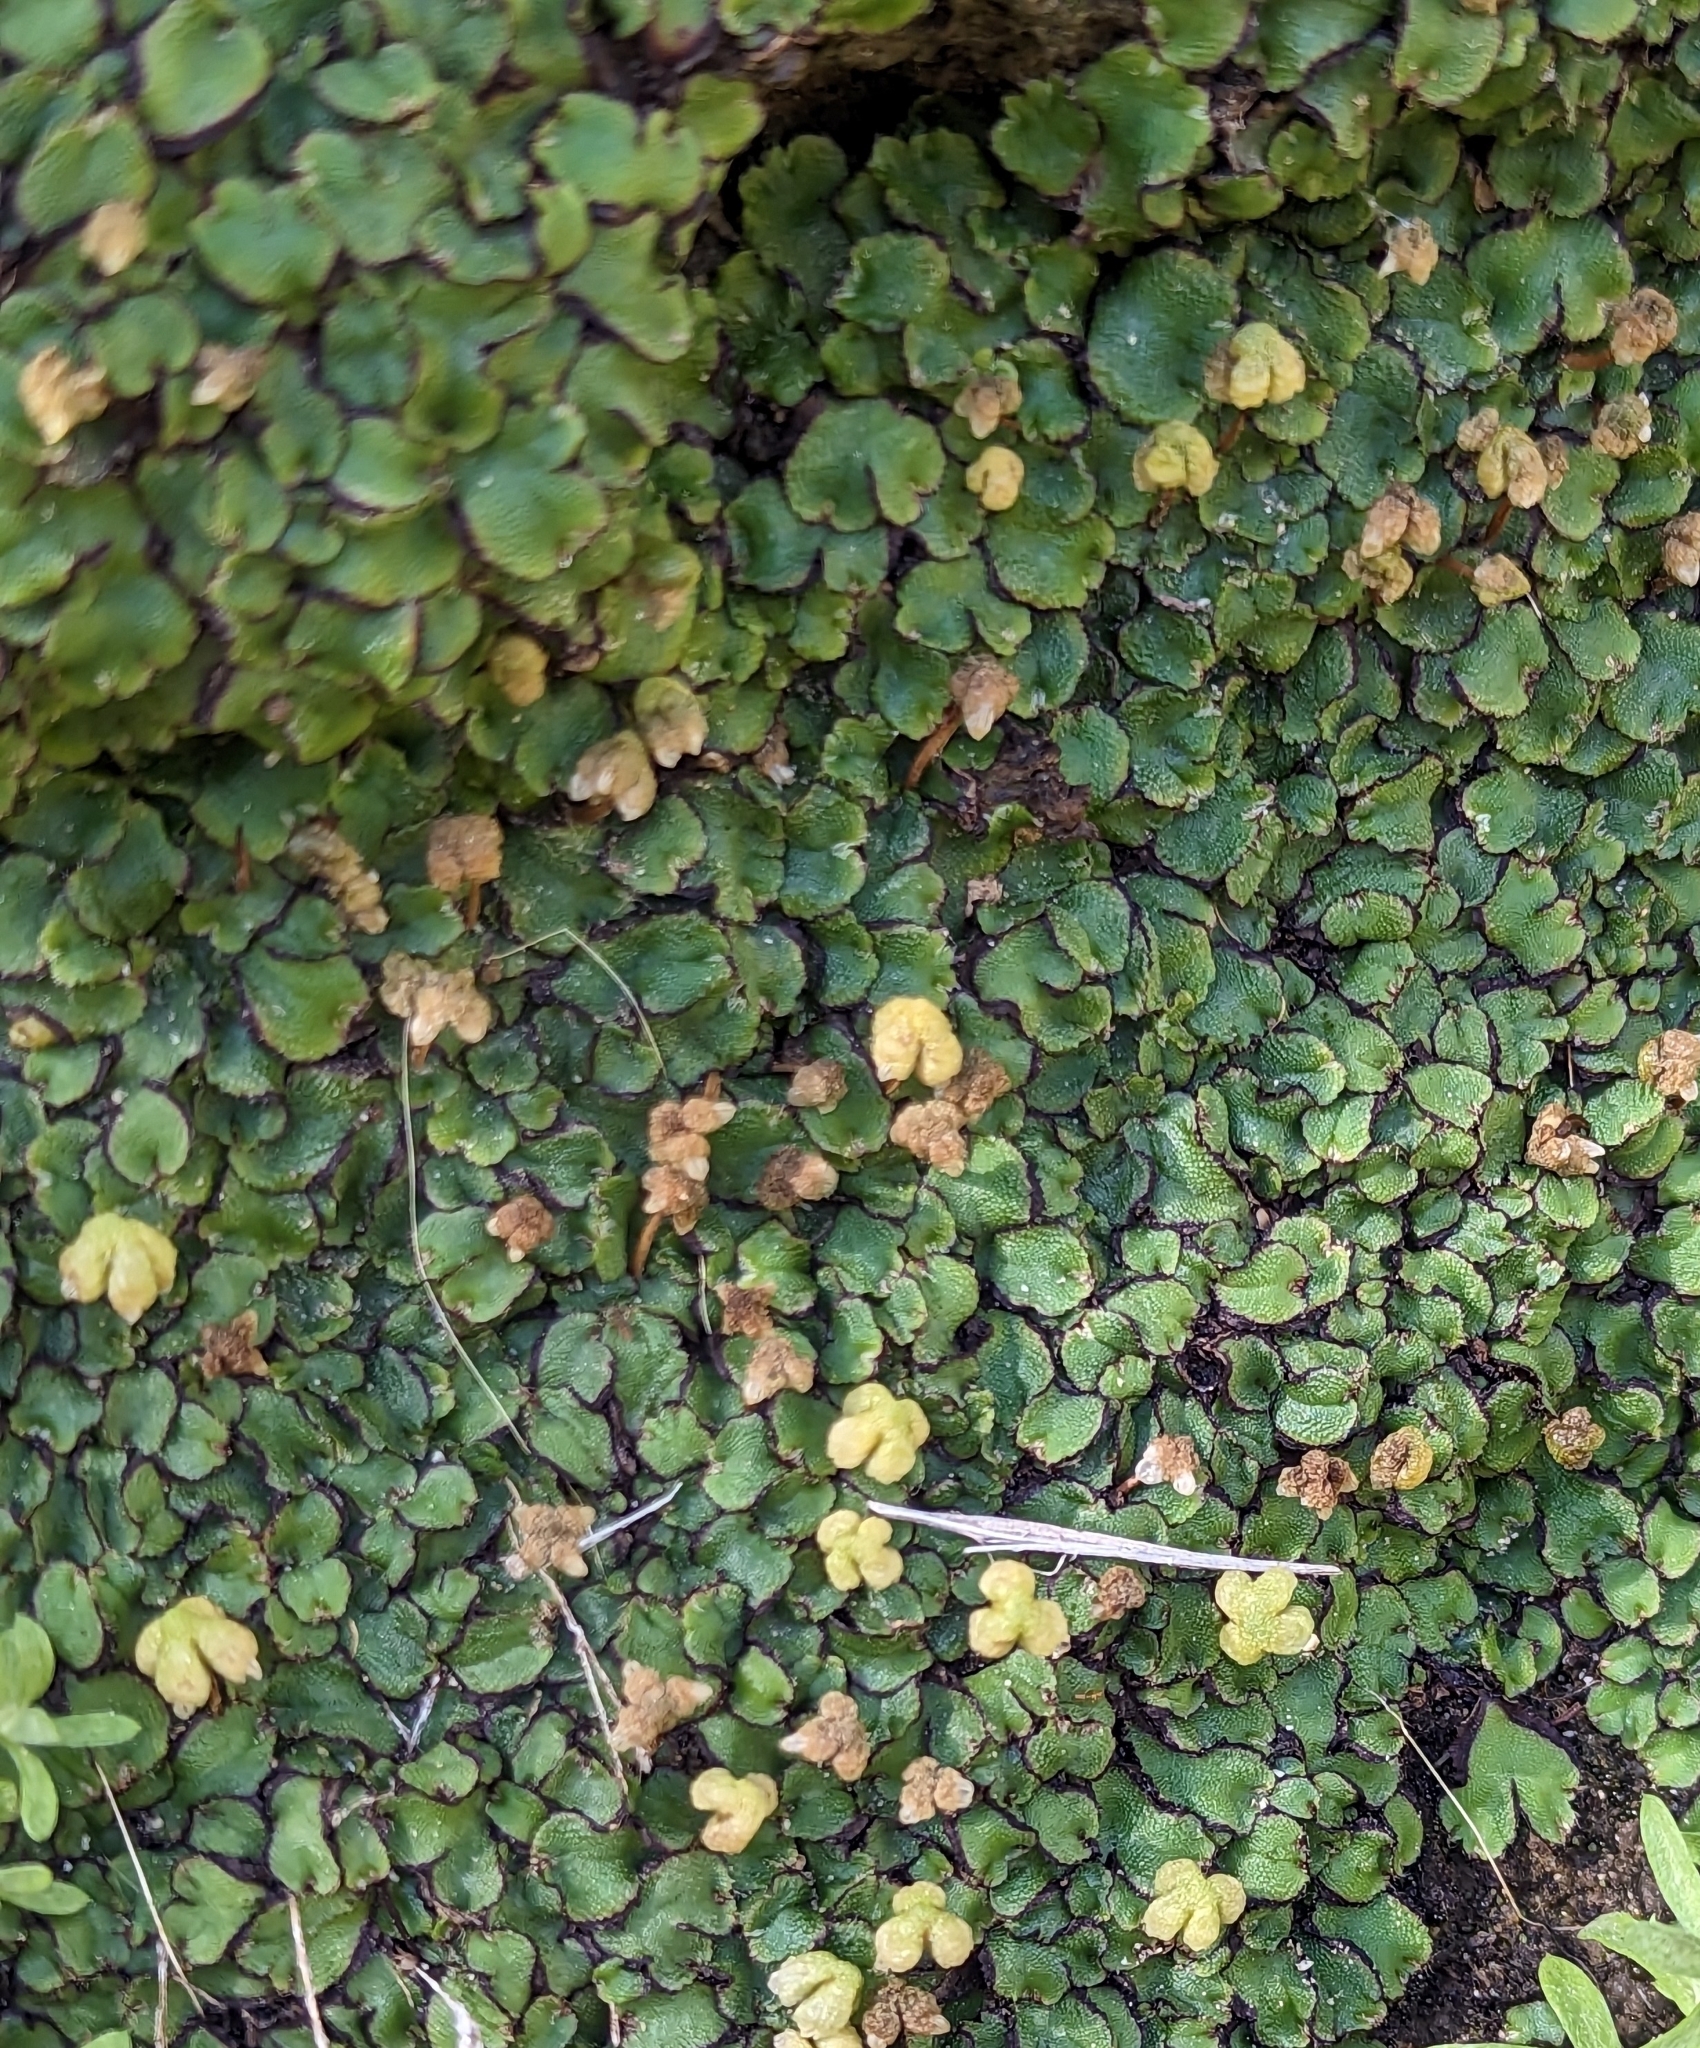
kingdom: Plantae
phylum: Marchantiophyta
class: Marchantiopsida
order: Marchantiales
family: Aytoniaceae
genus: Asterella
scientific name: Asterella californica
